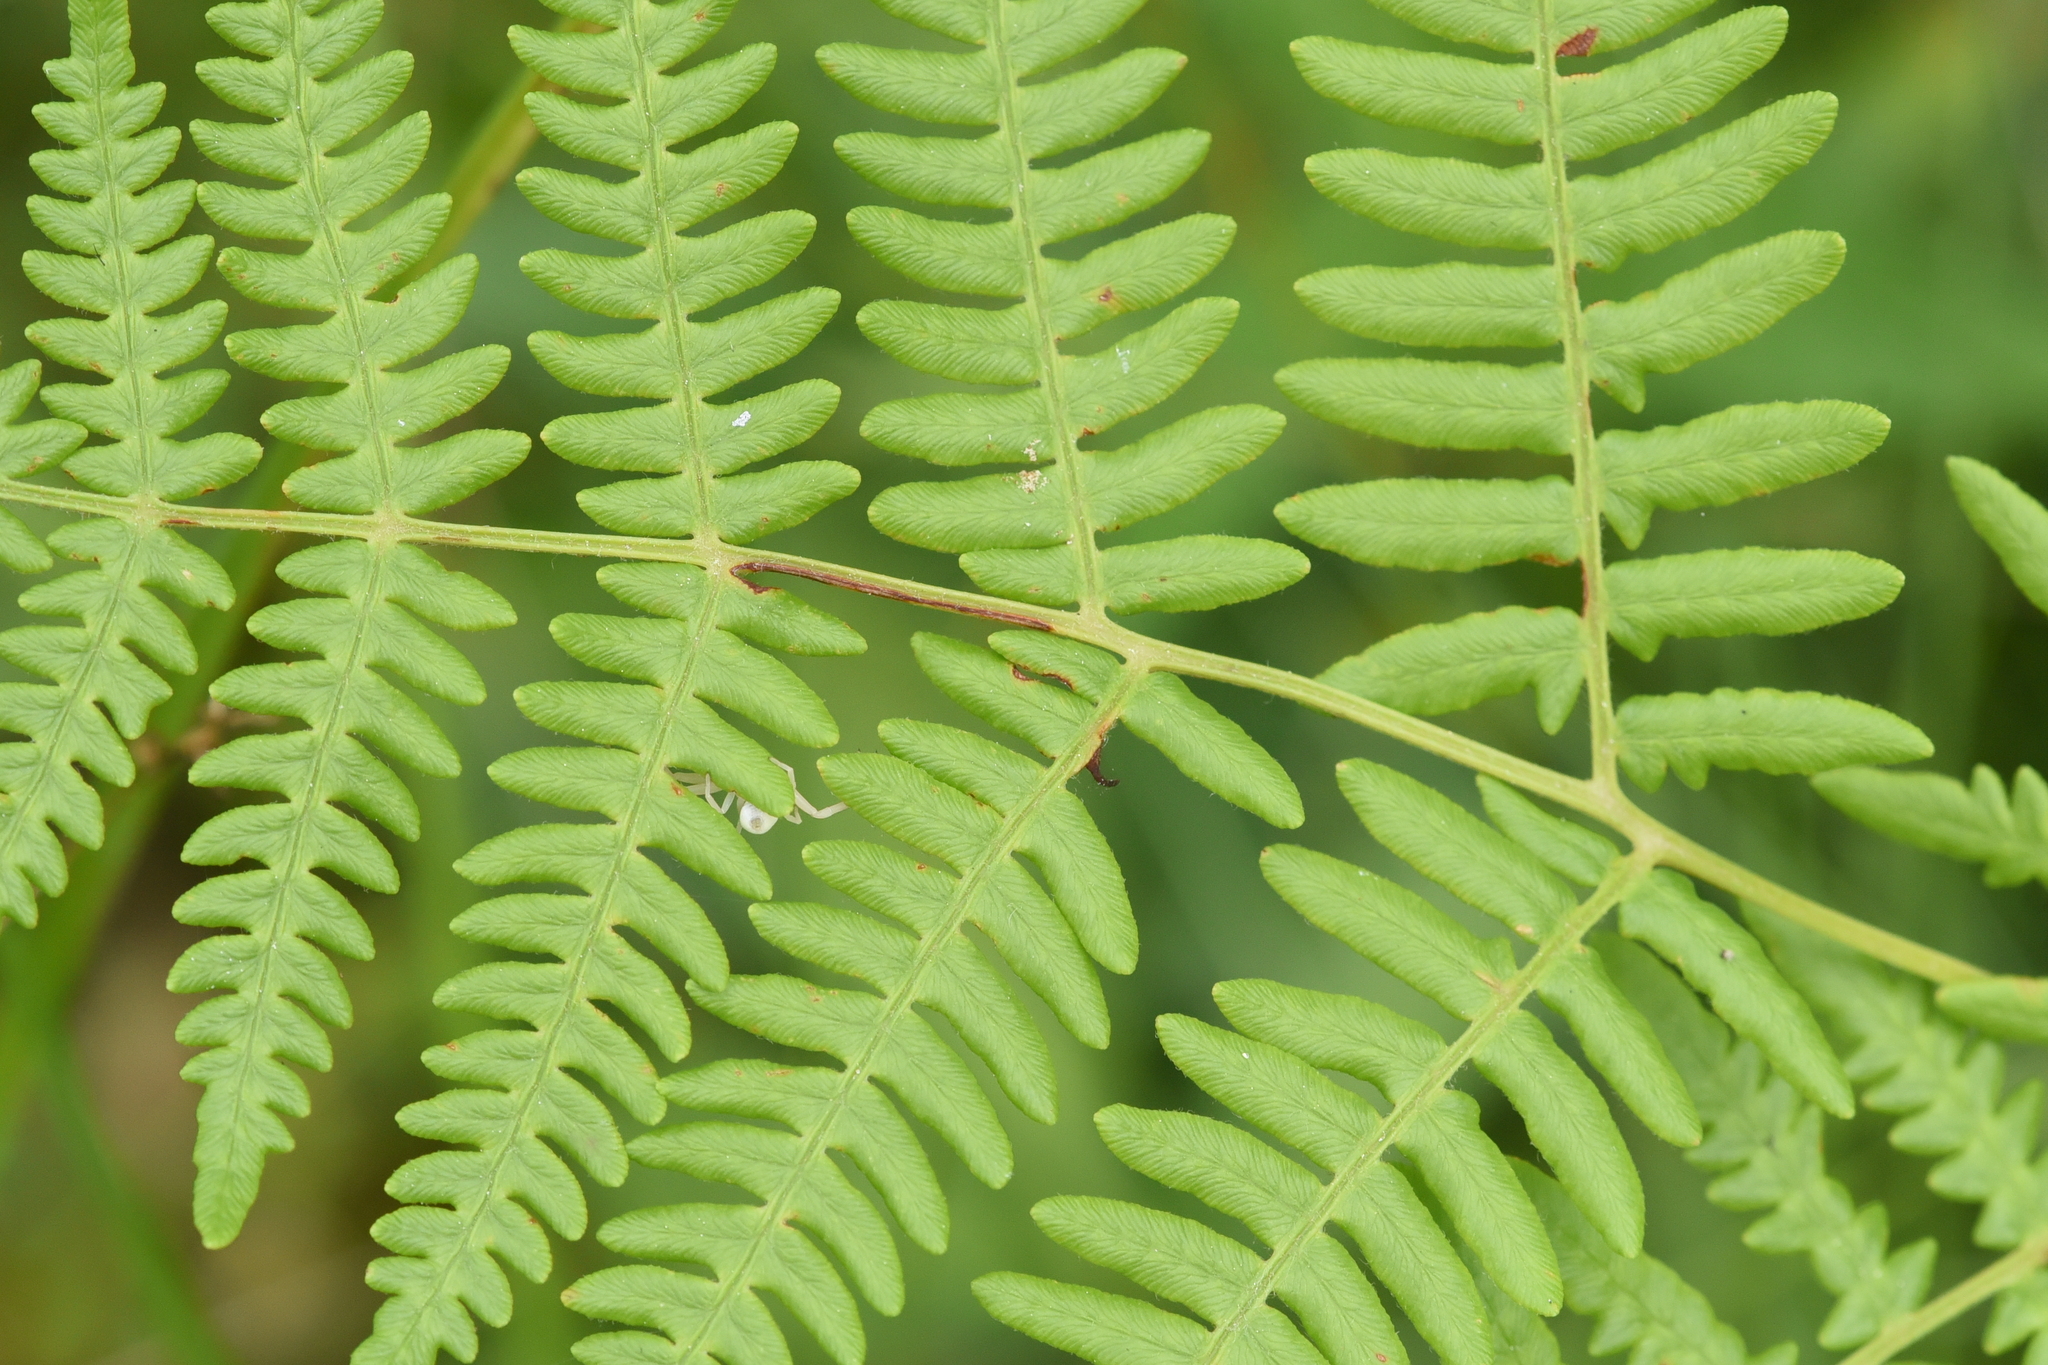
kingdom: Plantae
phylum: Tracheophyta
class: Polypodiopsida
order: Polypodiales
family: Dennstaedtiaceae
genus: Pteridium
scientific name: Pteridium aquilinum
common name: Bracken
